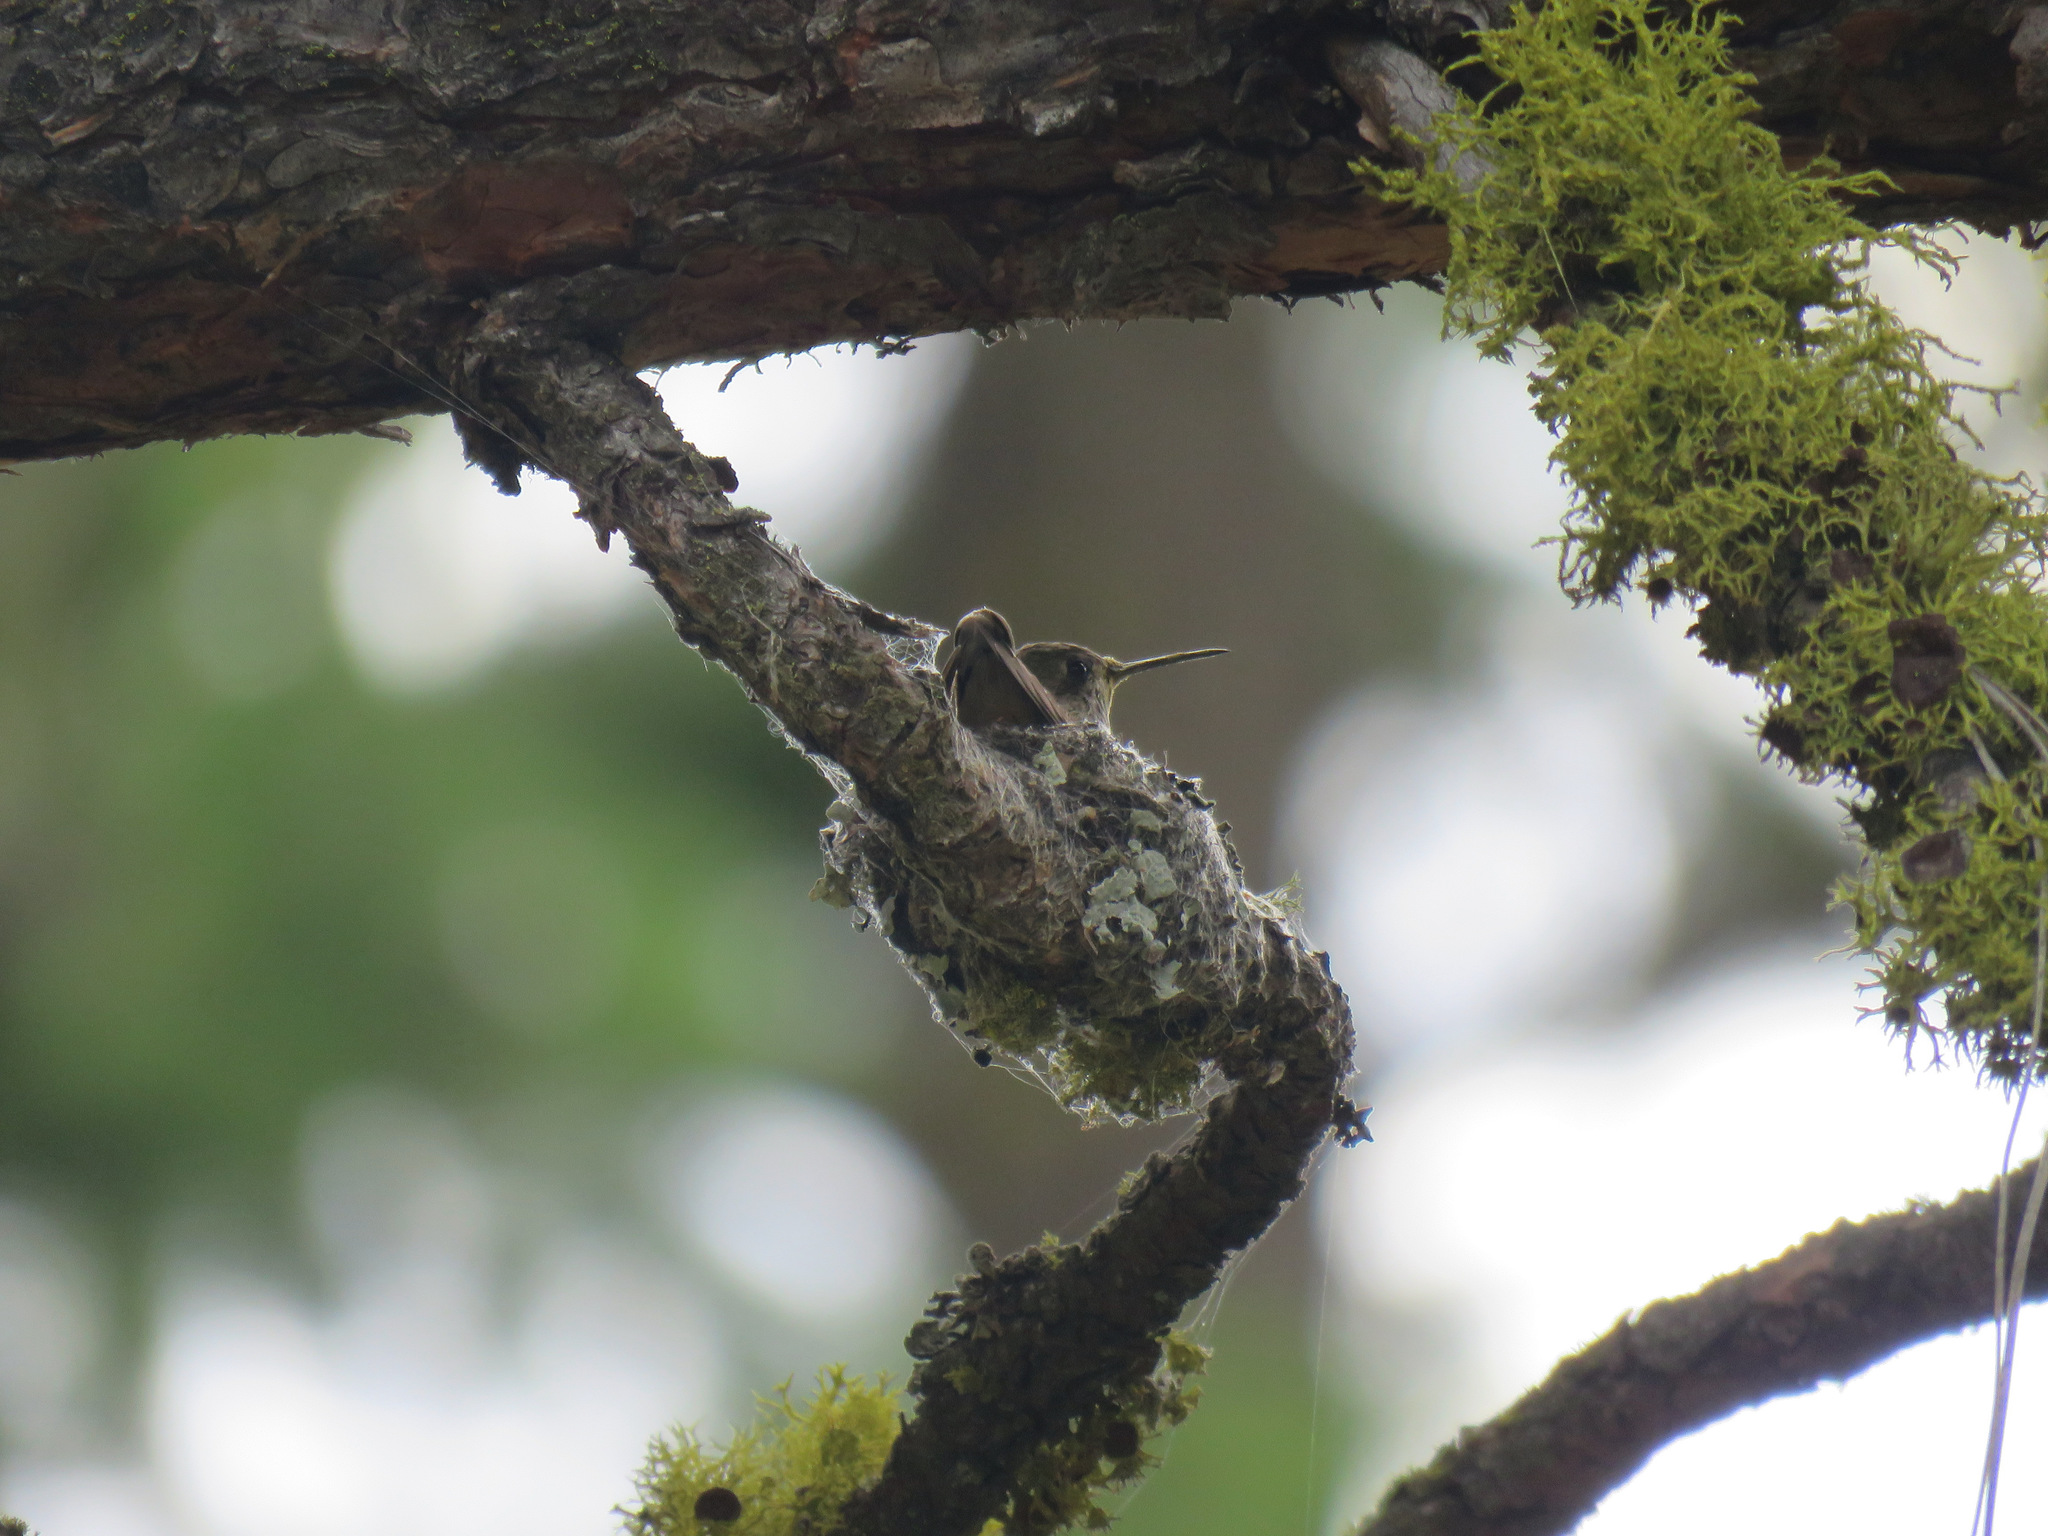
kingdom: Animalia
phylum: Chordata
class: Aves
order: Apodiformes
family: Trochilidae
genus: Selasphorus
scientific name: Selasphorus calliope
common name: Calliope hummingbird
